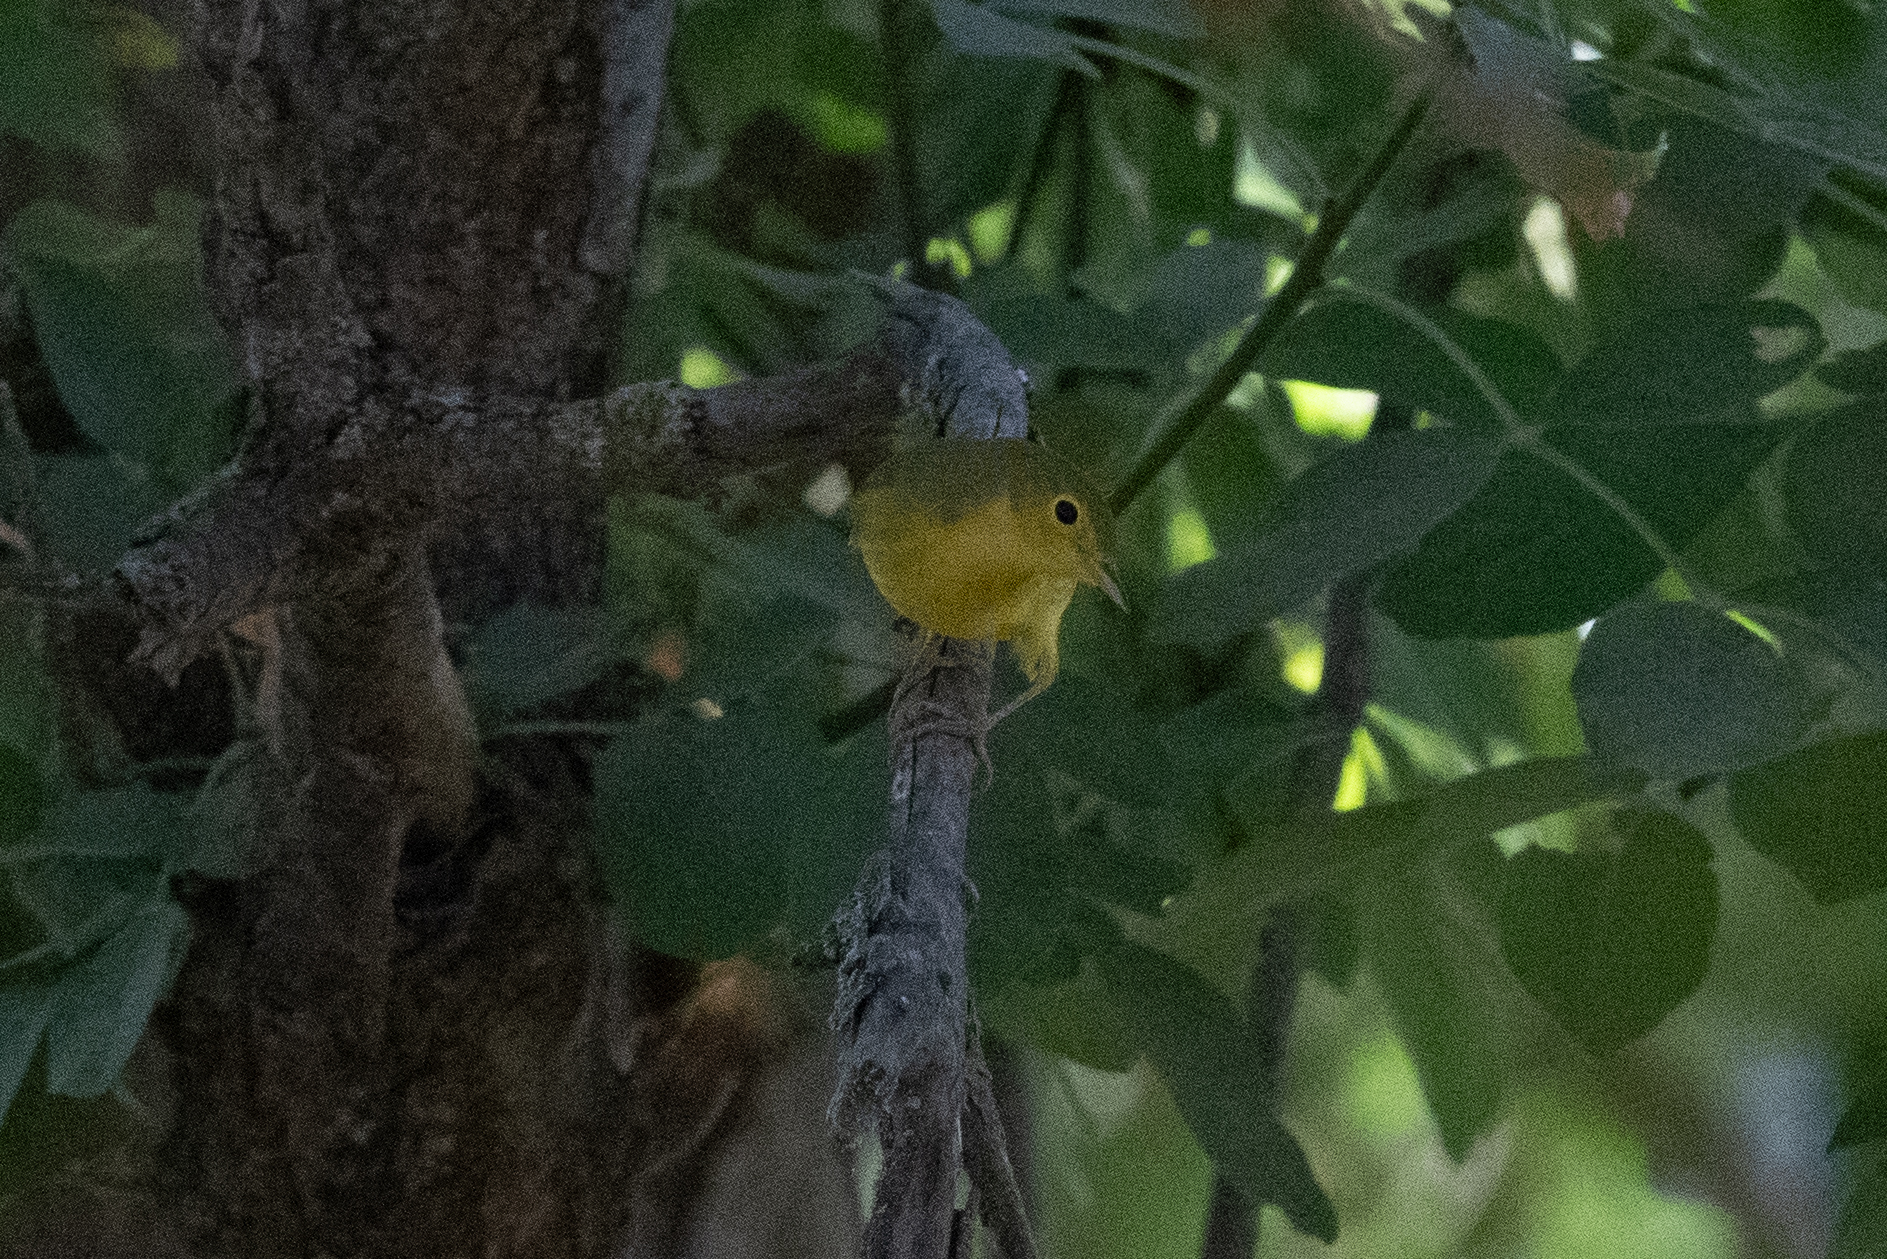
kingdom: Animalia
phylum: Chordata
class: Aves
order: Passeriformes
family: Parulidae
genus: Setophaga
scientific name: Setophaga petechia
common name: Yellow warbler
